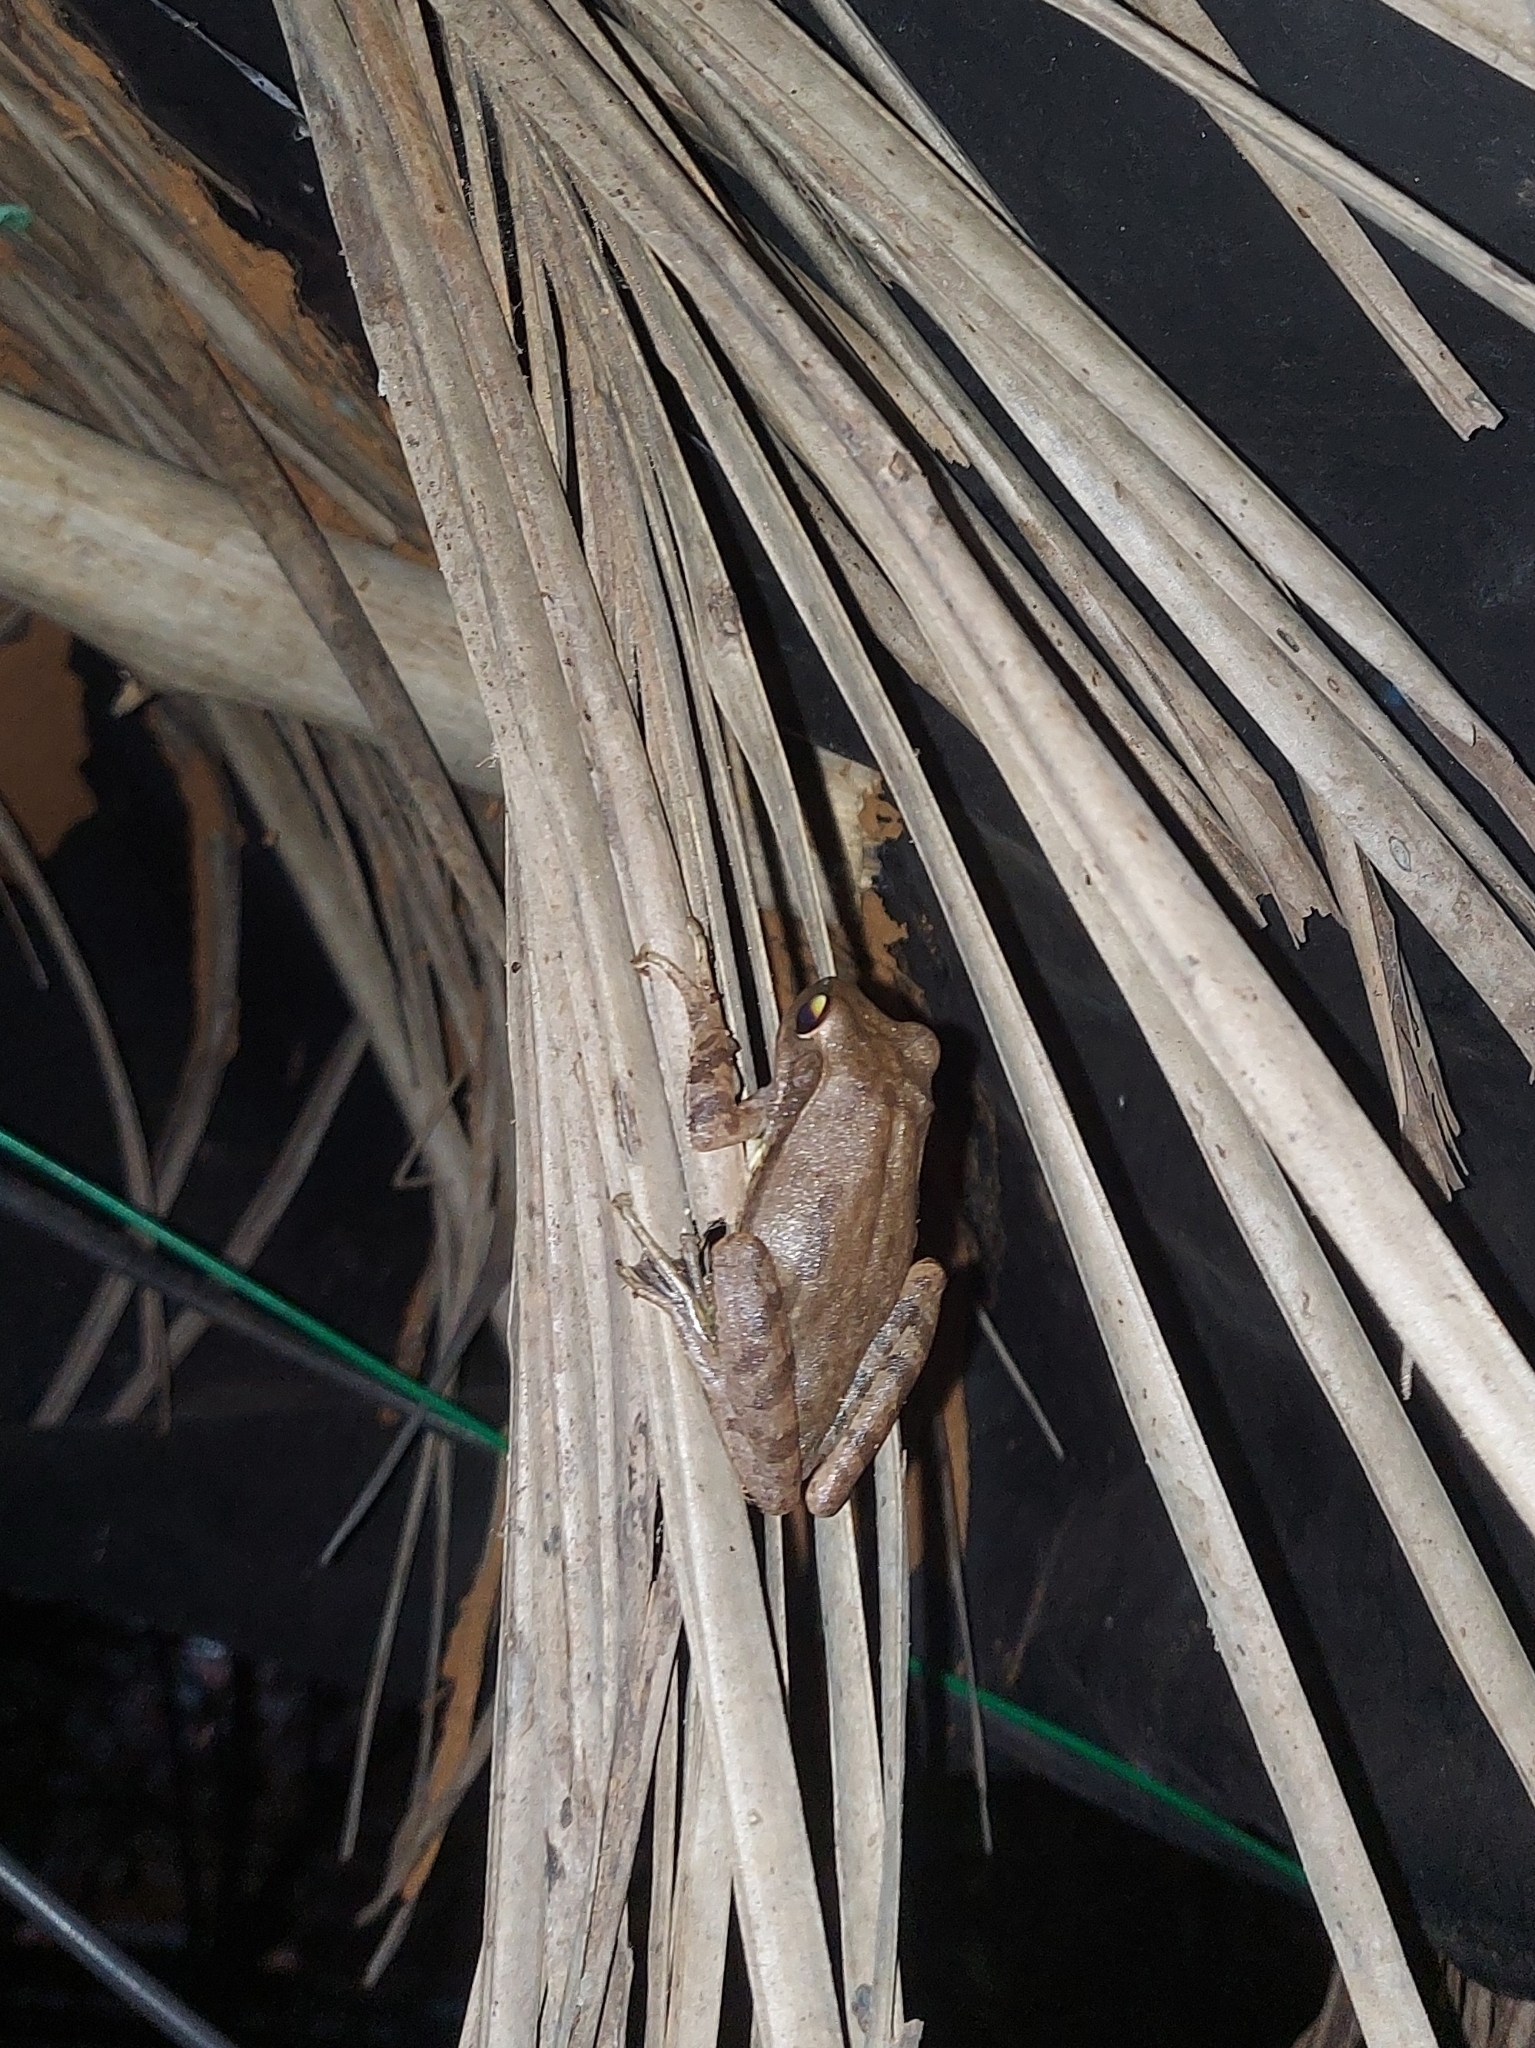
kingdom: Animalia
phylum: Chordata
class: Amphibia
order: Anura
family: Rhacophoridae
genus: Polypedates
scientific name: Polypedates maculatus
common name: Himalayan tree frog
